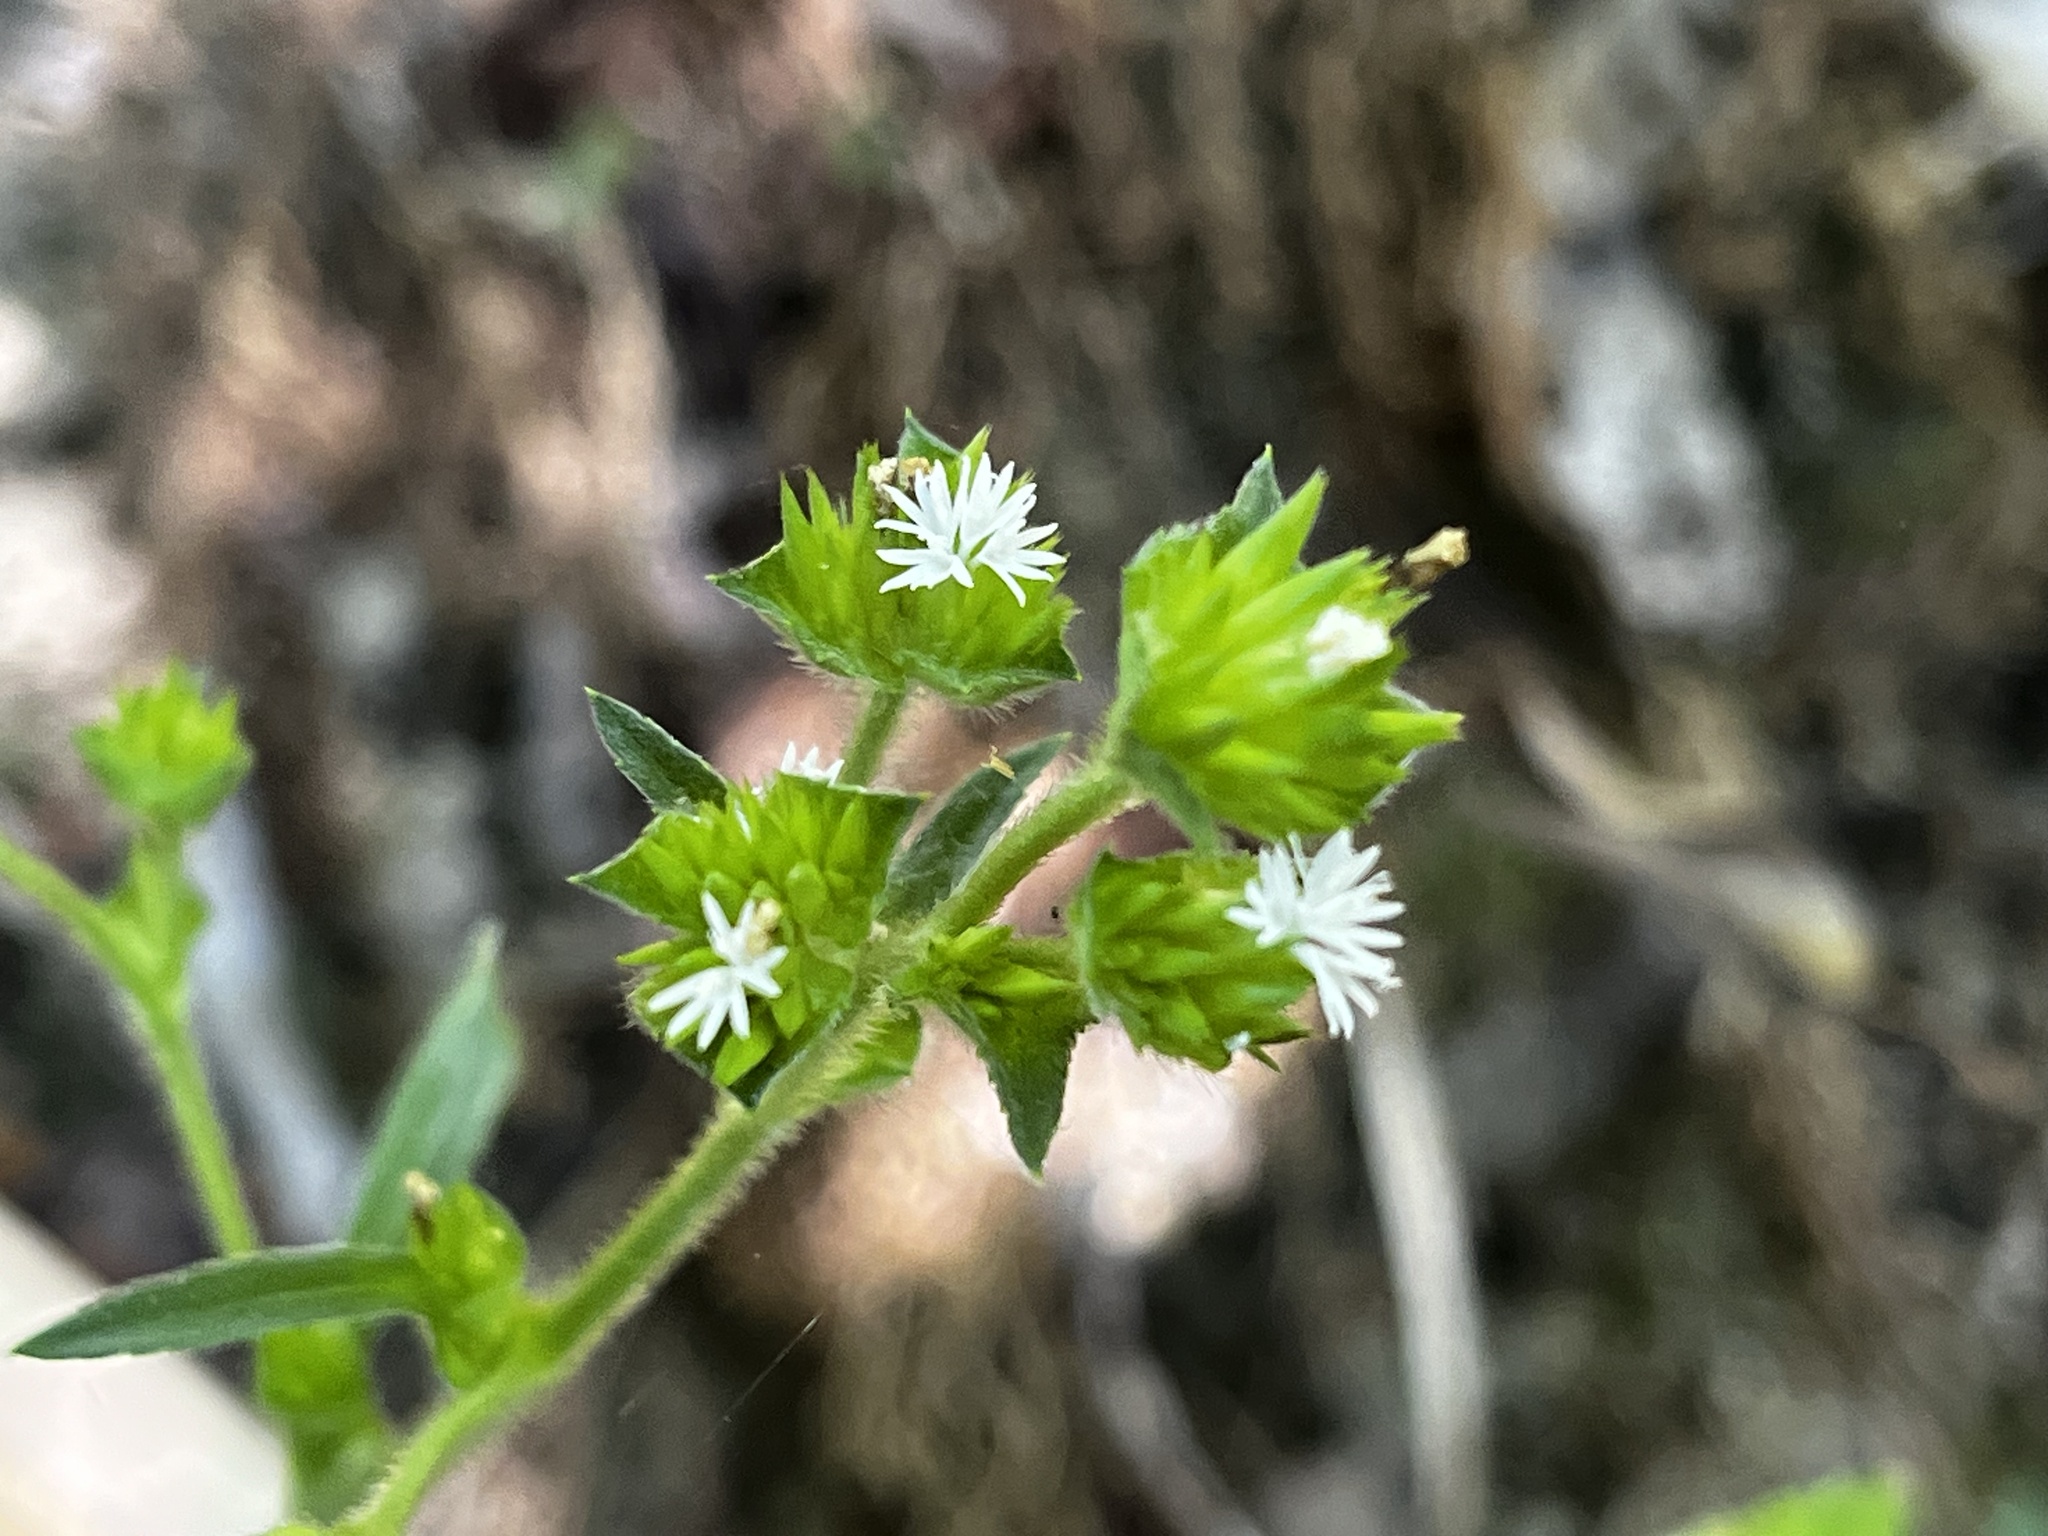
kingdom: Plantae
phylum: Tracheophyta
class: Magnoliopsida
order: Asterales
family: Asteraceae
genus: Elephantopus
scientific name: Elephantopus mollis
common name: Soft elephantsfoot
